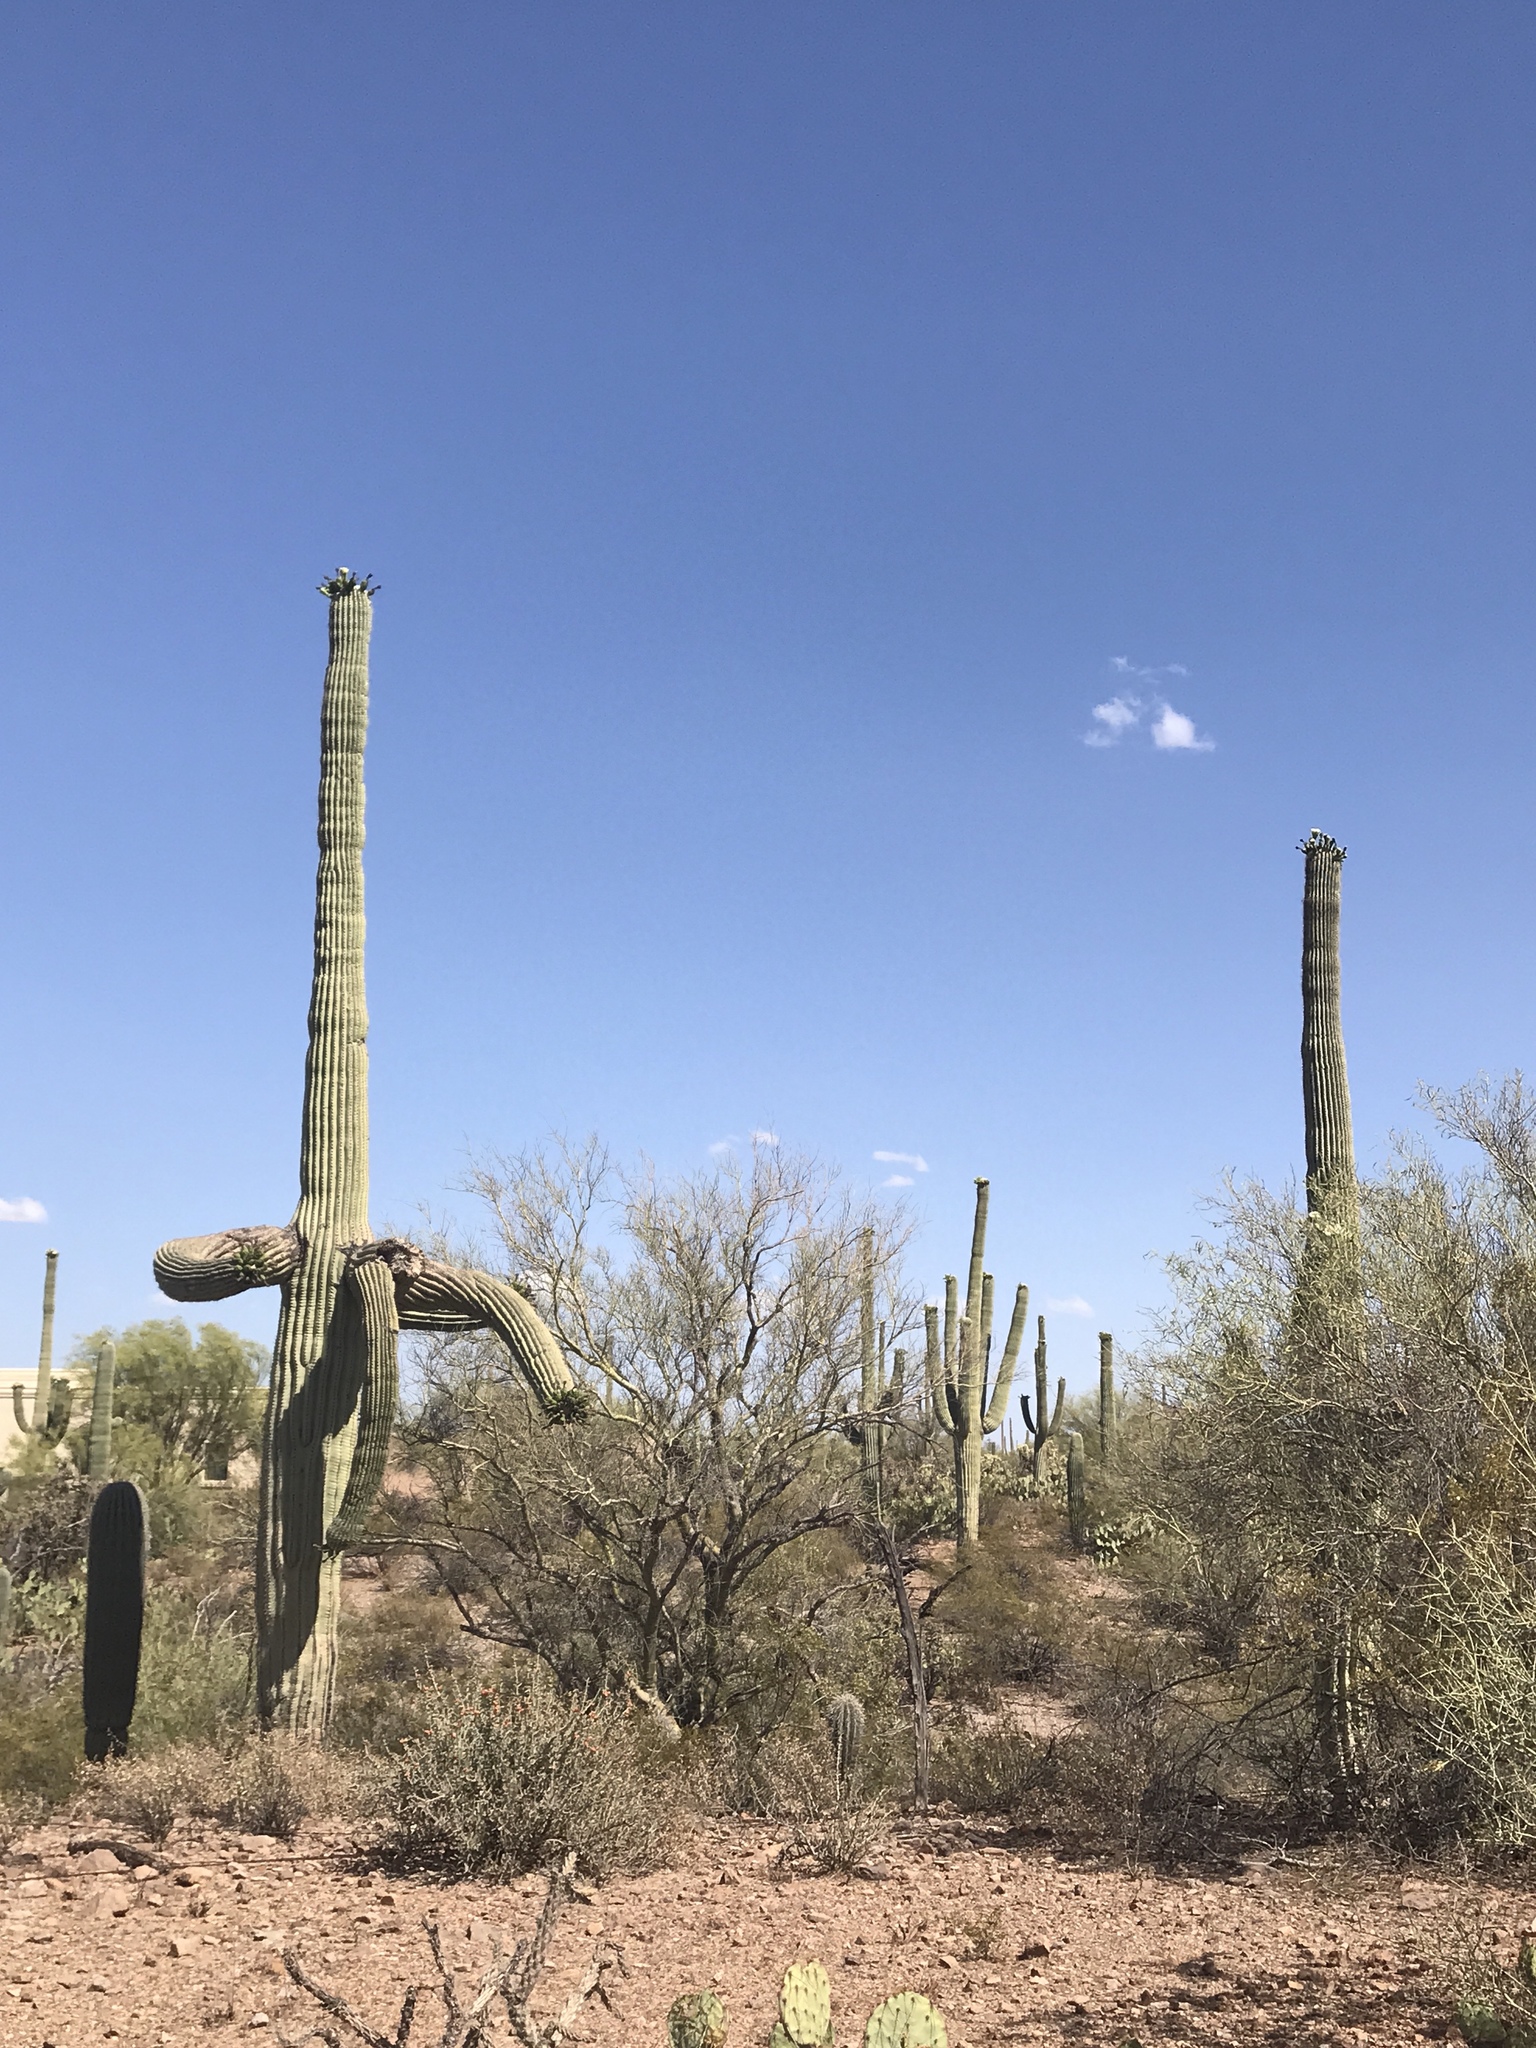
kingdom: Plantae
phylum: Tracheophyta
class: Magnoliopsida
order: Caryophyllales
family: Cactaceae
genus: Carnegiea
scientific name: Carnegiea gigantea
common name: Saguaro
